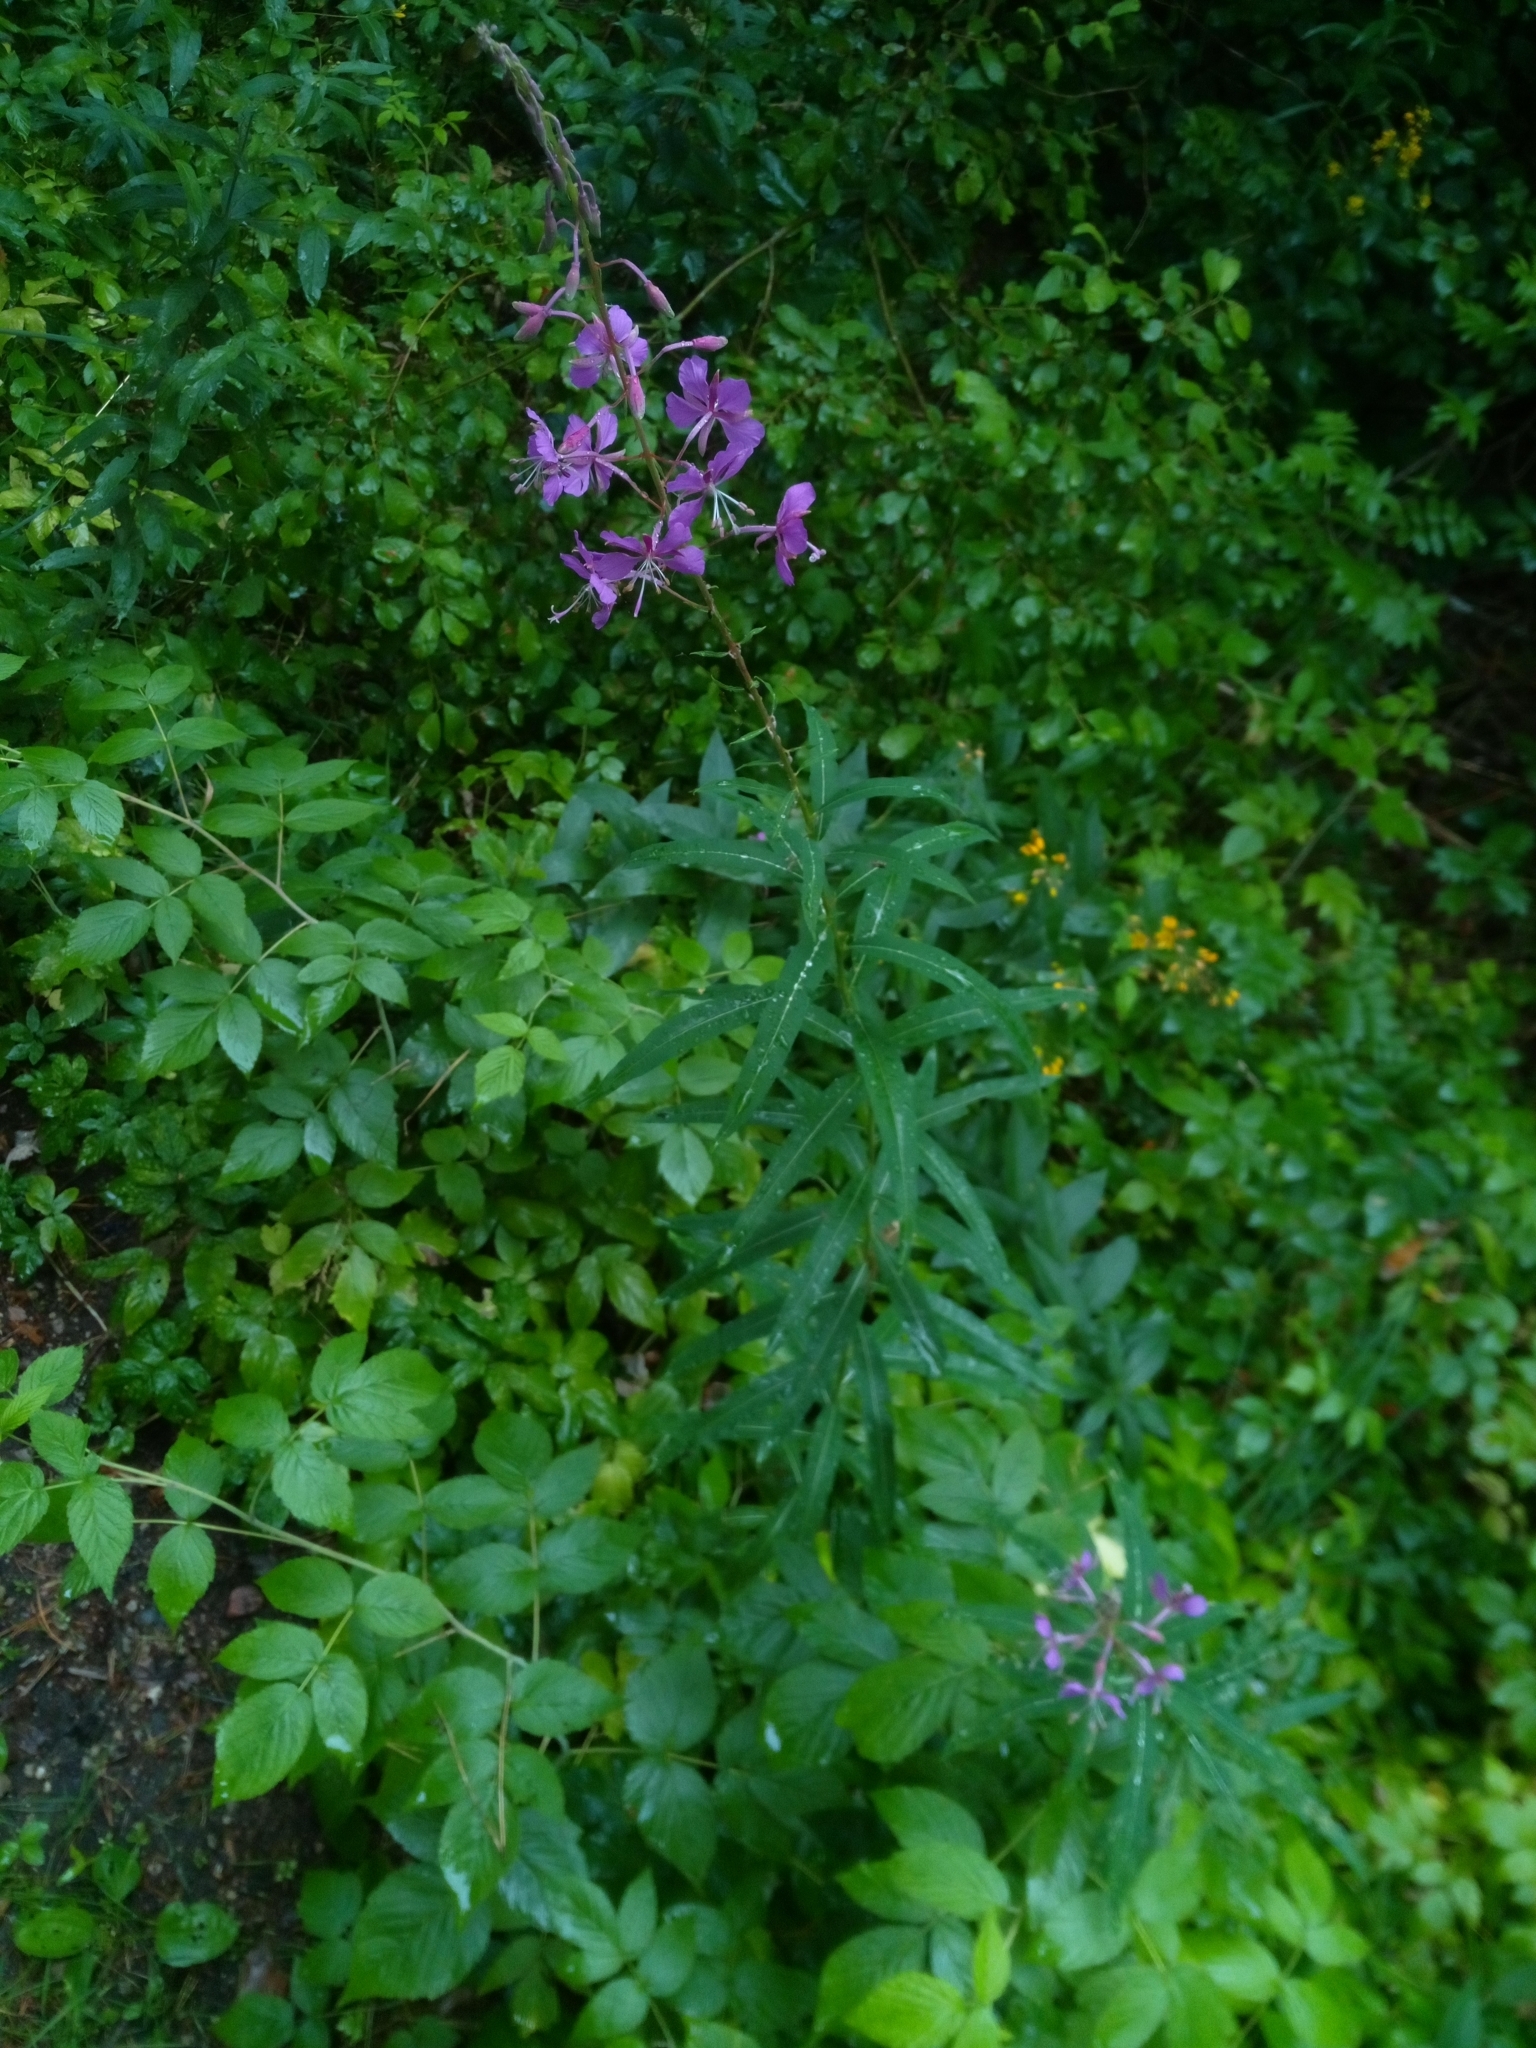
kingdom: Plantae
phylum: Tracheophyta
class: Magnoliopsida
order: Myrtales
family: Onagraceae
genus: Chamaenerion
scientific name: Chamaenerion angustifolium
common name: Fireweed
